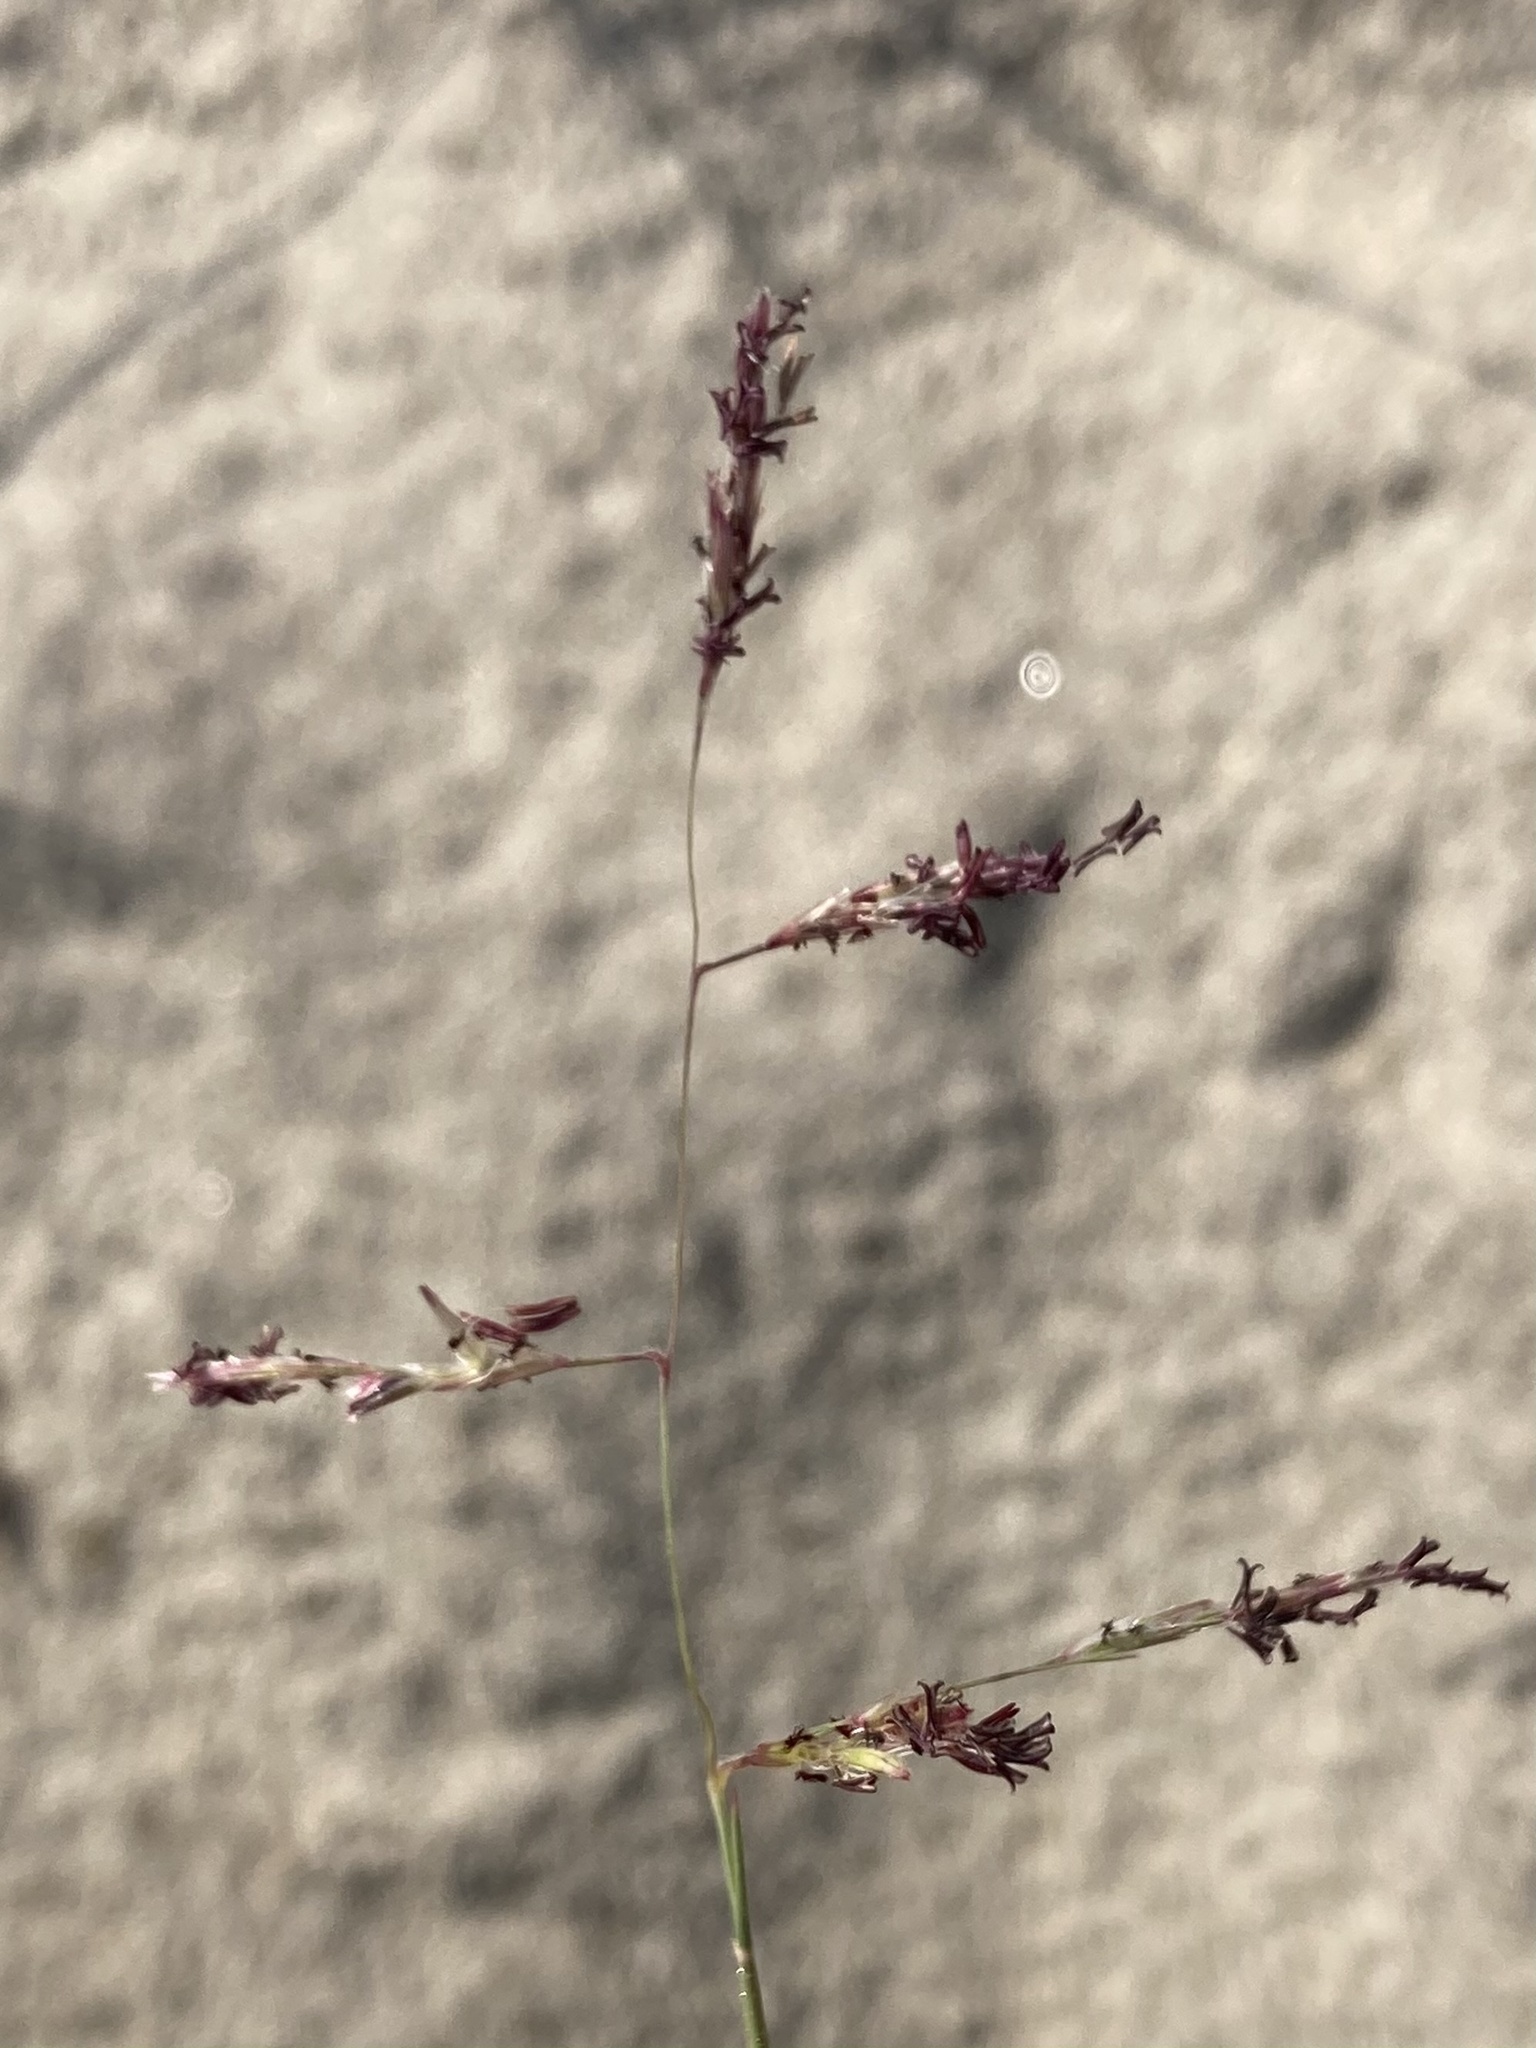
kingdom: Plantae
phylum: Tracheophyta
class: Liliopsida
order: Poales
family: Poaceae
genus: Triplasis
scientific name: Triplasis purpurea
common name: Purple sand grass
